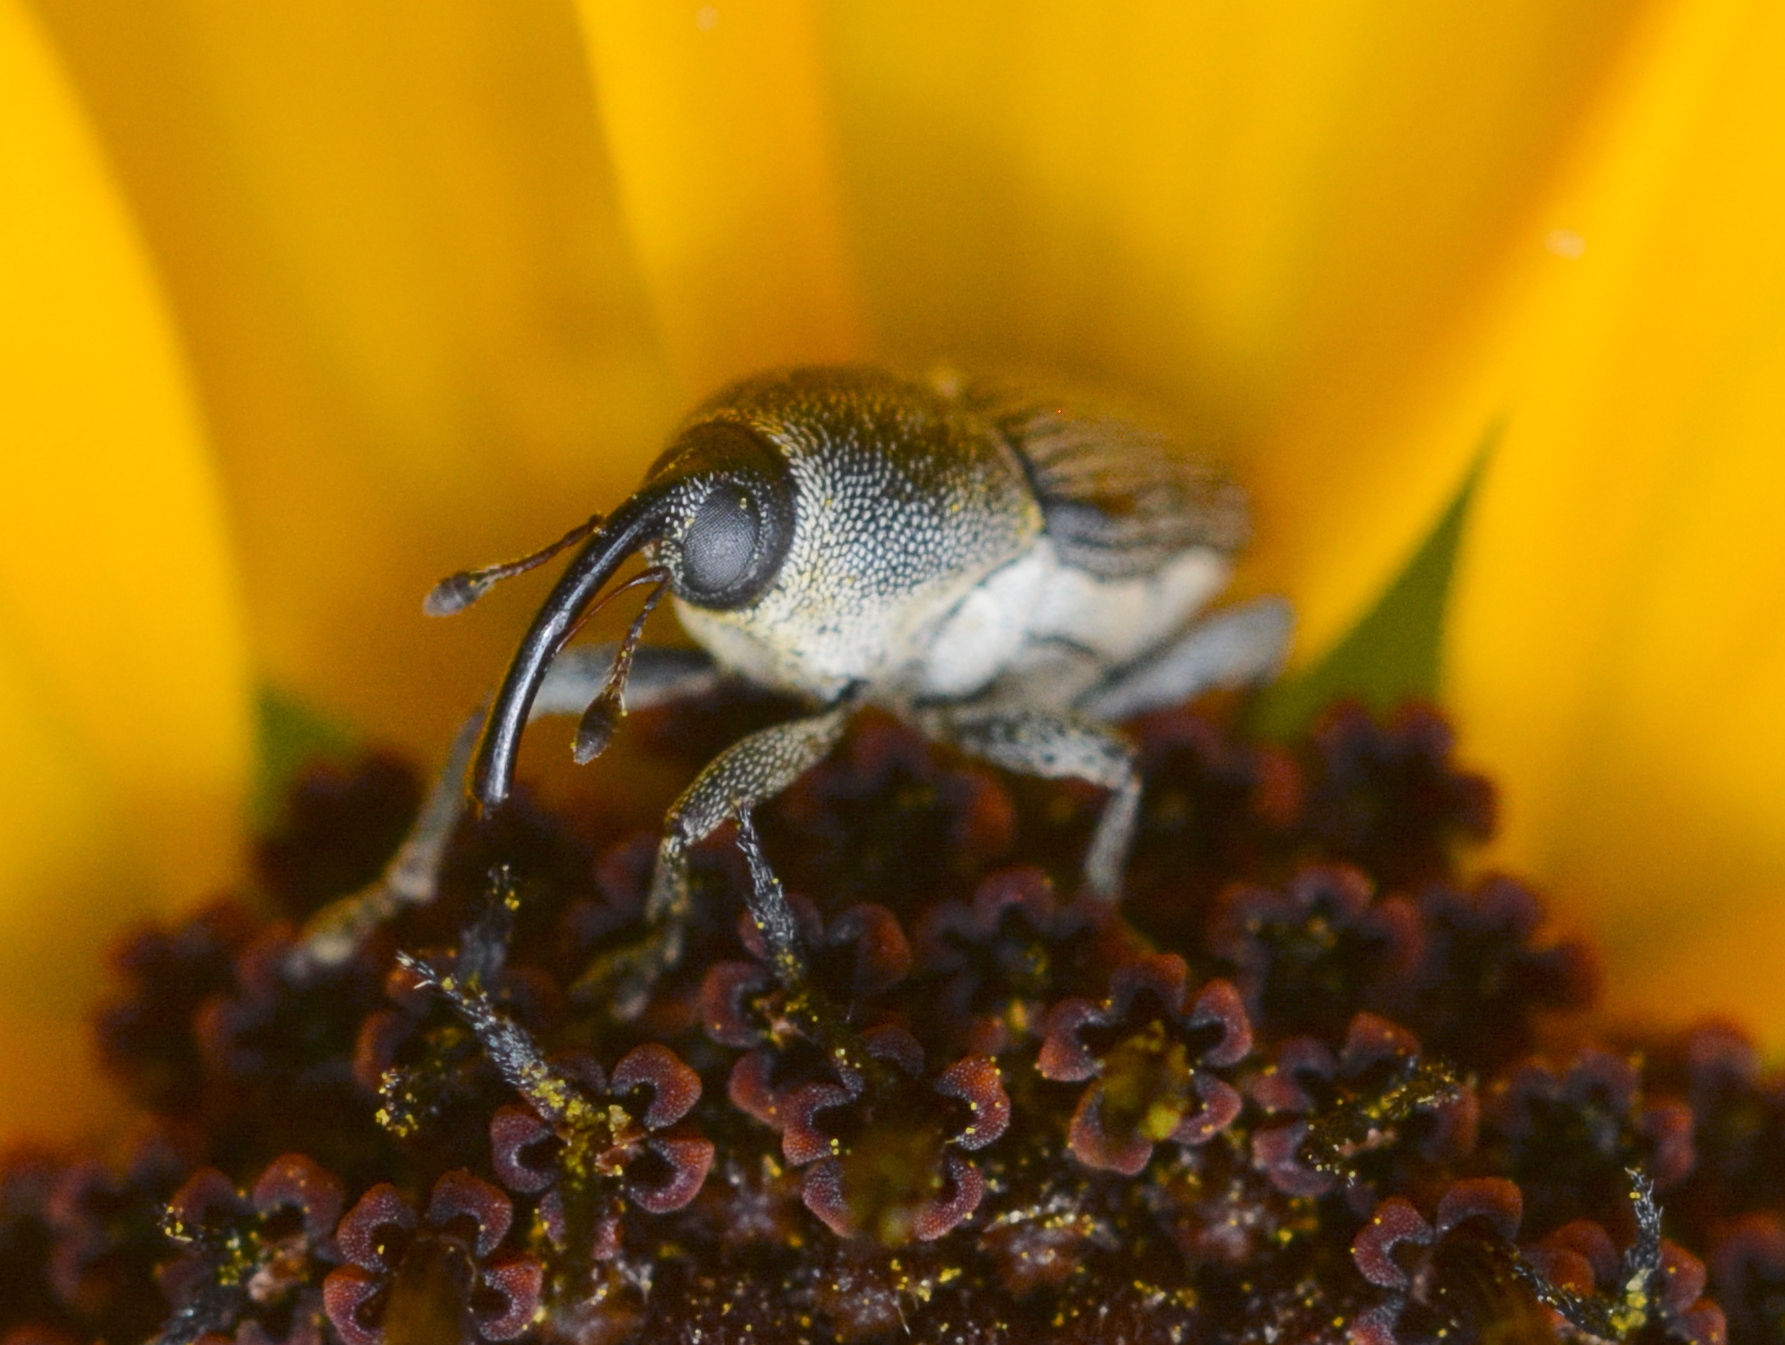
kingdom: Animalia
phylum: Arthropoda
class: Insecta
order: Coleoptera
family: Curculionidae
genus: Odontocorynus
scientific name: Odontocorynus salebrosus
